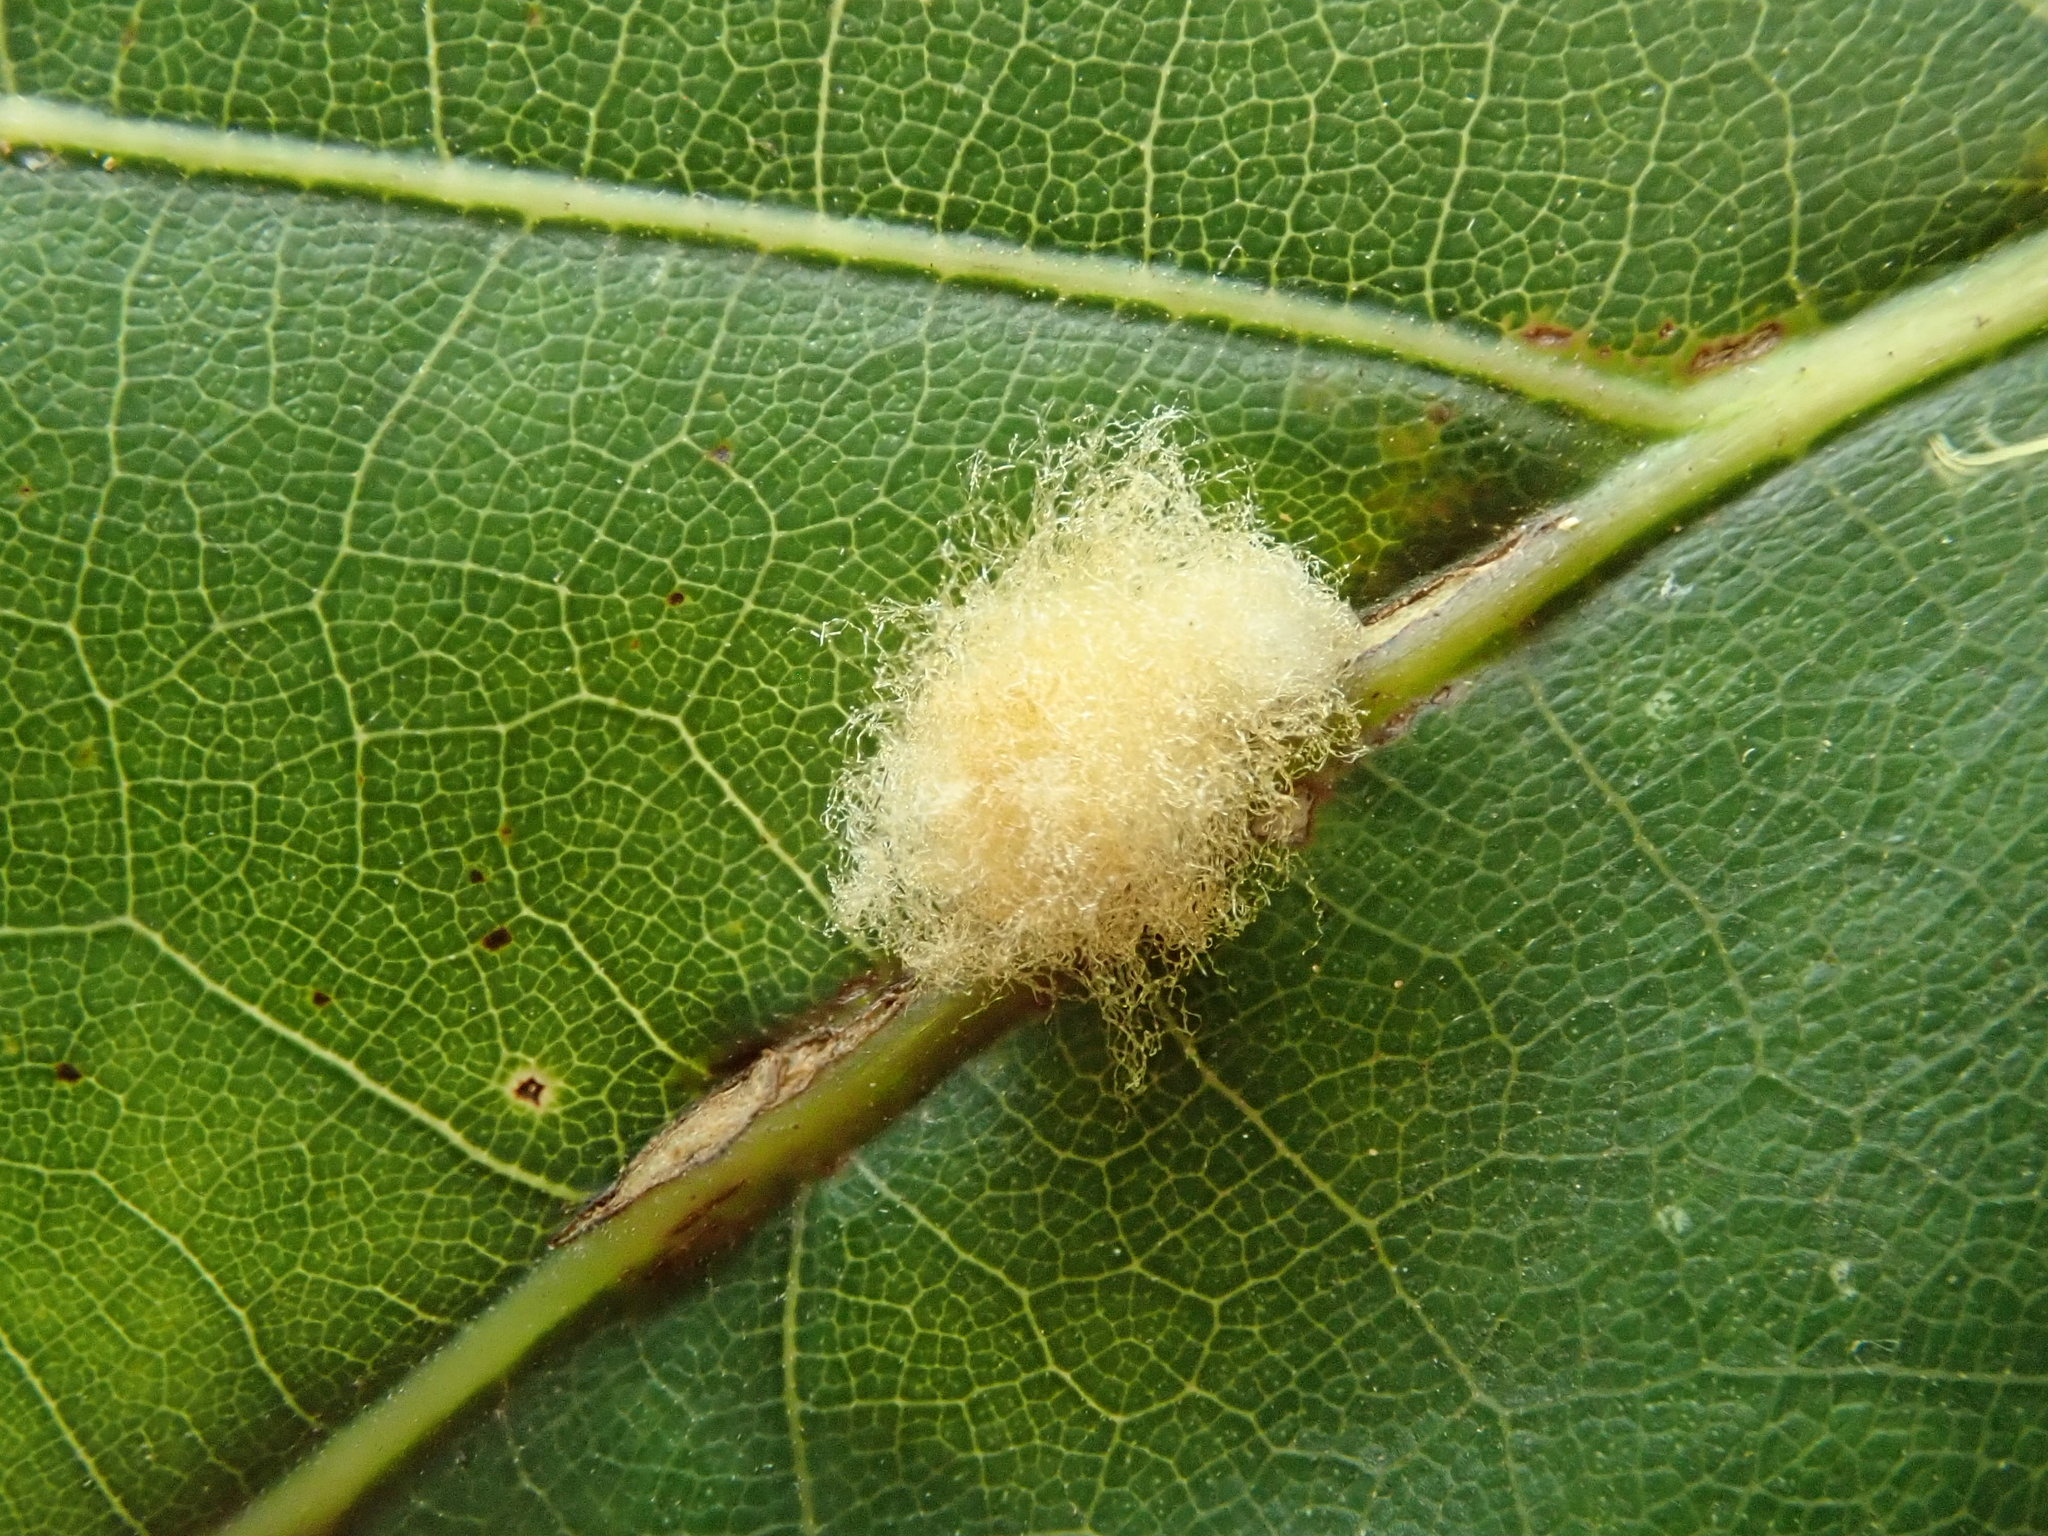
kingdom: Animalia
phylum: Arthropoda
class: Insecta
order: Hymenoptera
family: Cynipidae
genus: Callirhytis
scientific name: Callirhytis
